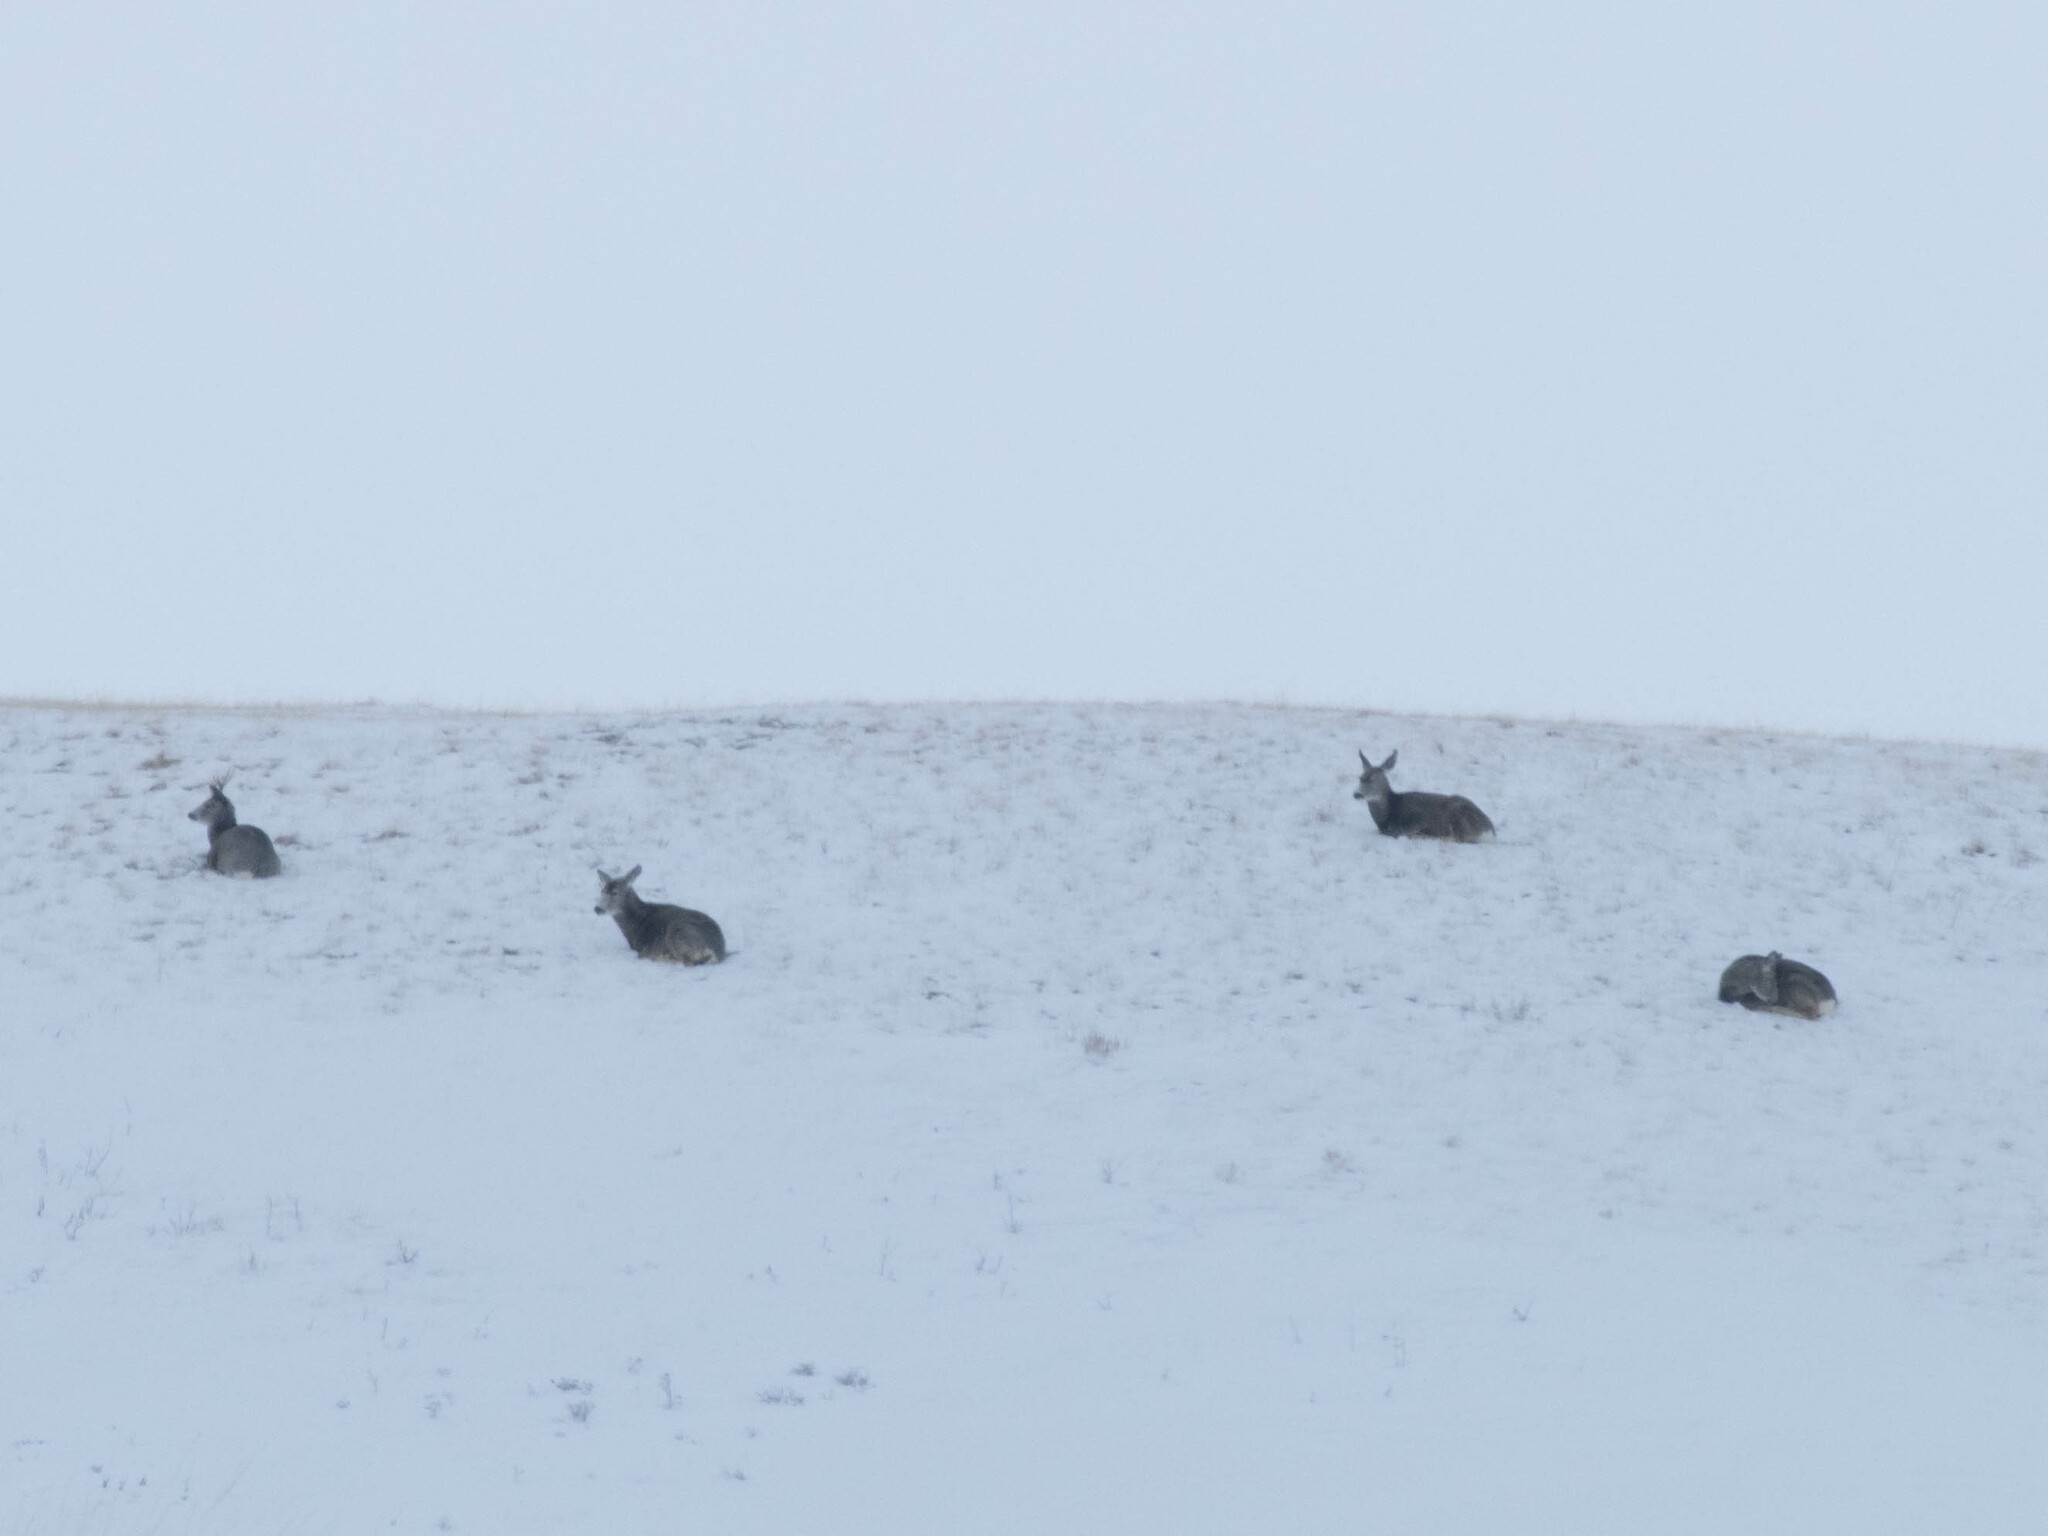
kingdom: Animalia
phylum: Chordata
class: Mammalia
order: Artiodactyla
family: Cervidae
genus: Odocoileus
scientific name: Odocoileus hemionus
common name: Mule deer
